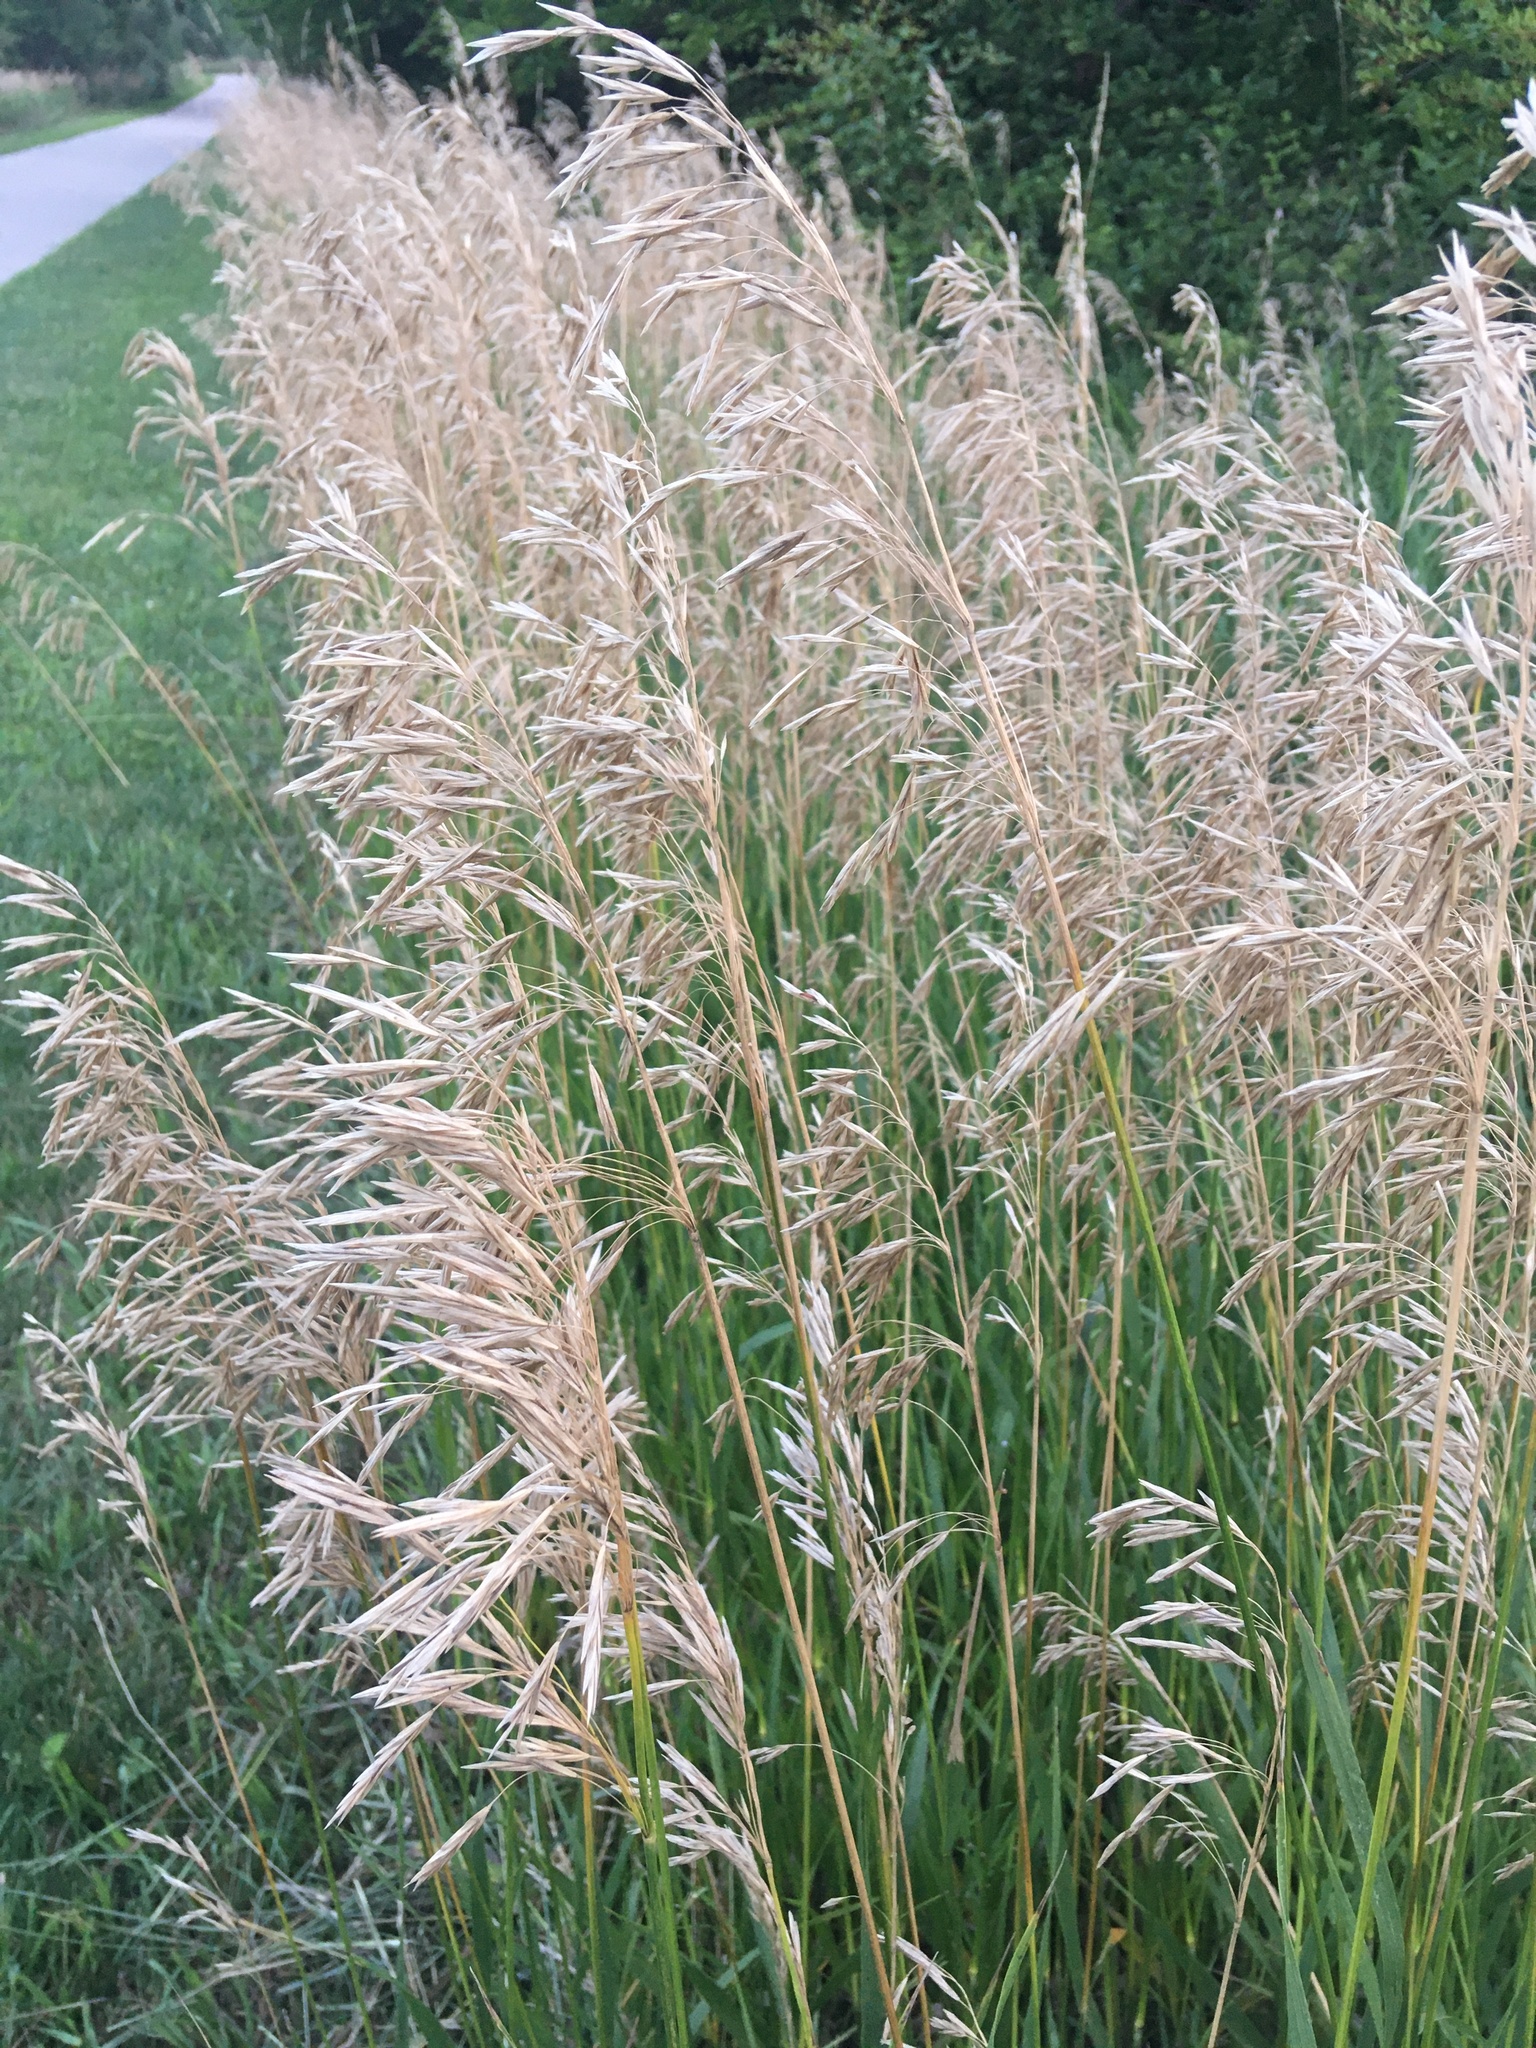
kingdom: Plantae
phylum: Tracheophyta
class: Liliopsida
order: Poales
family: Poaceae
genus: Bromus
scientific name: Bromus inermis
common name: Smooth brome
